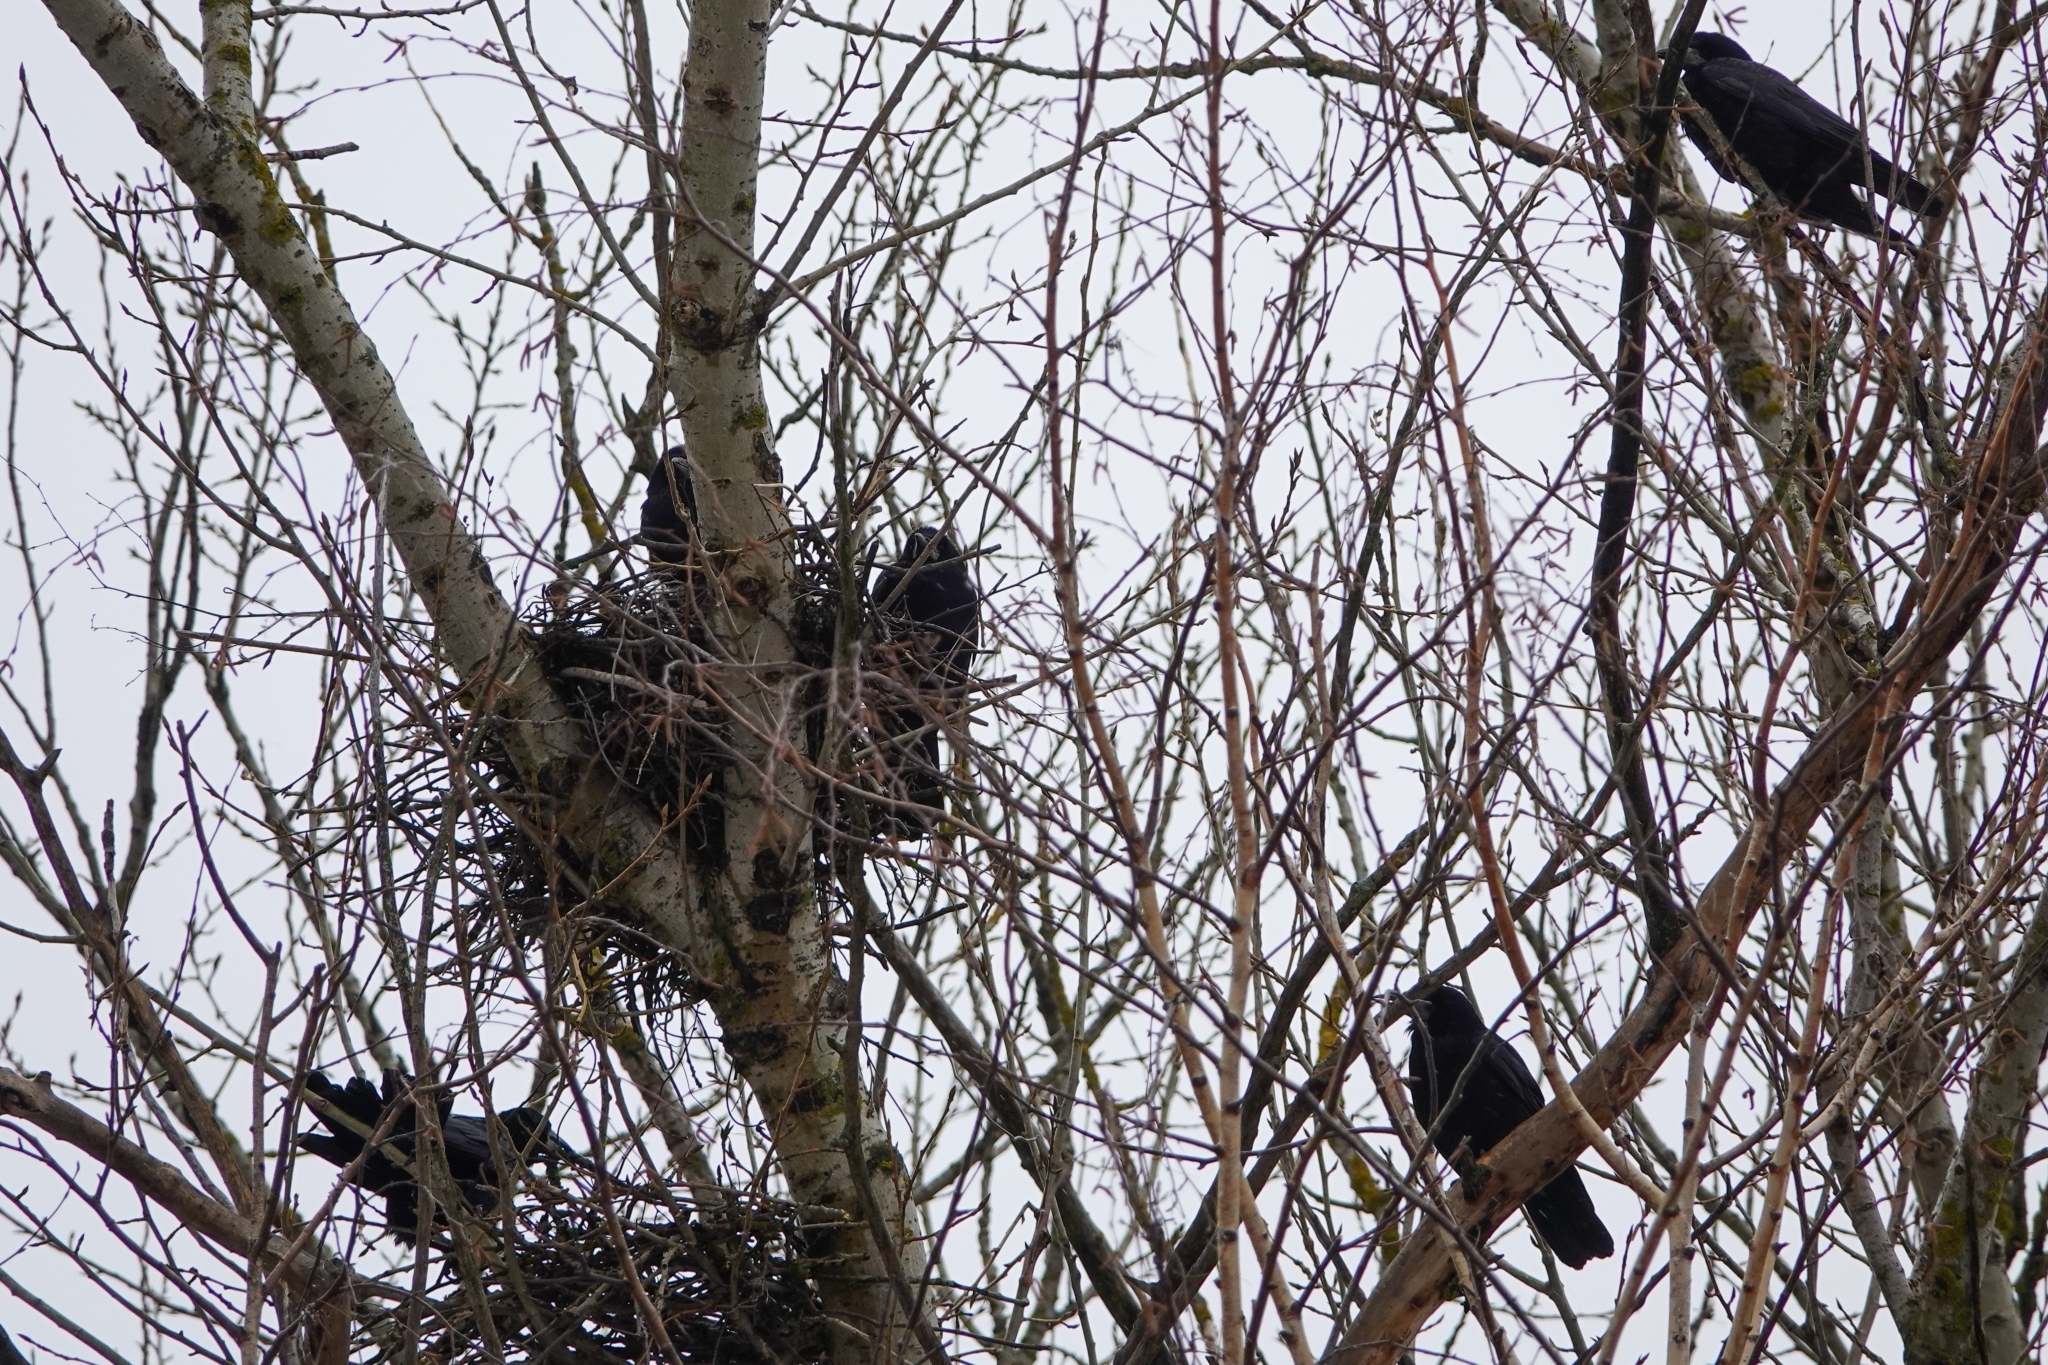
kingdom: Animalia
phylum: Chordata
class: Aves
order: Passeriformes
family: Corvidae
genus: Corvus
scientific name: Corvus frugilegus
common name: Rook
